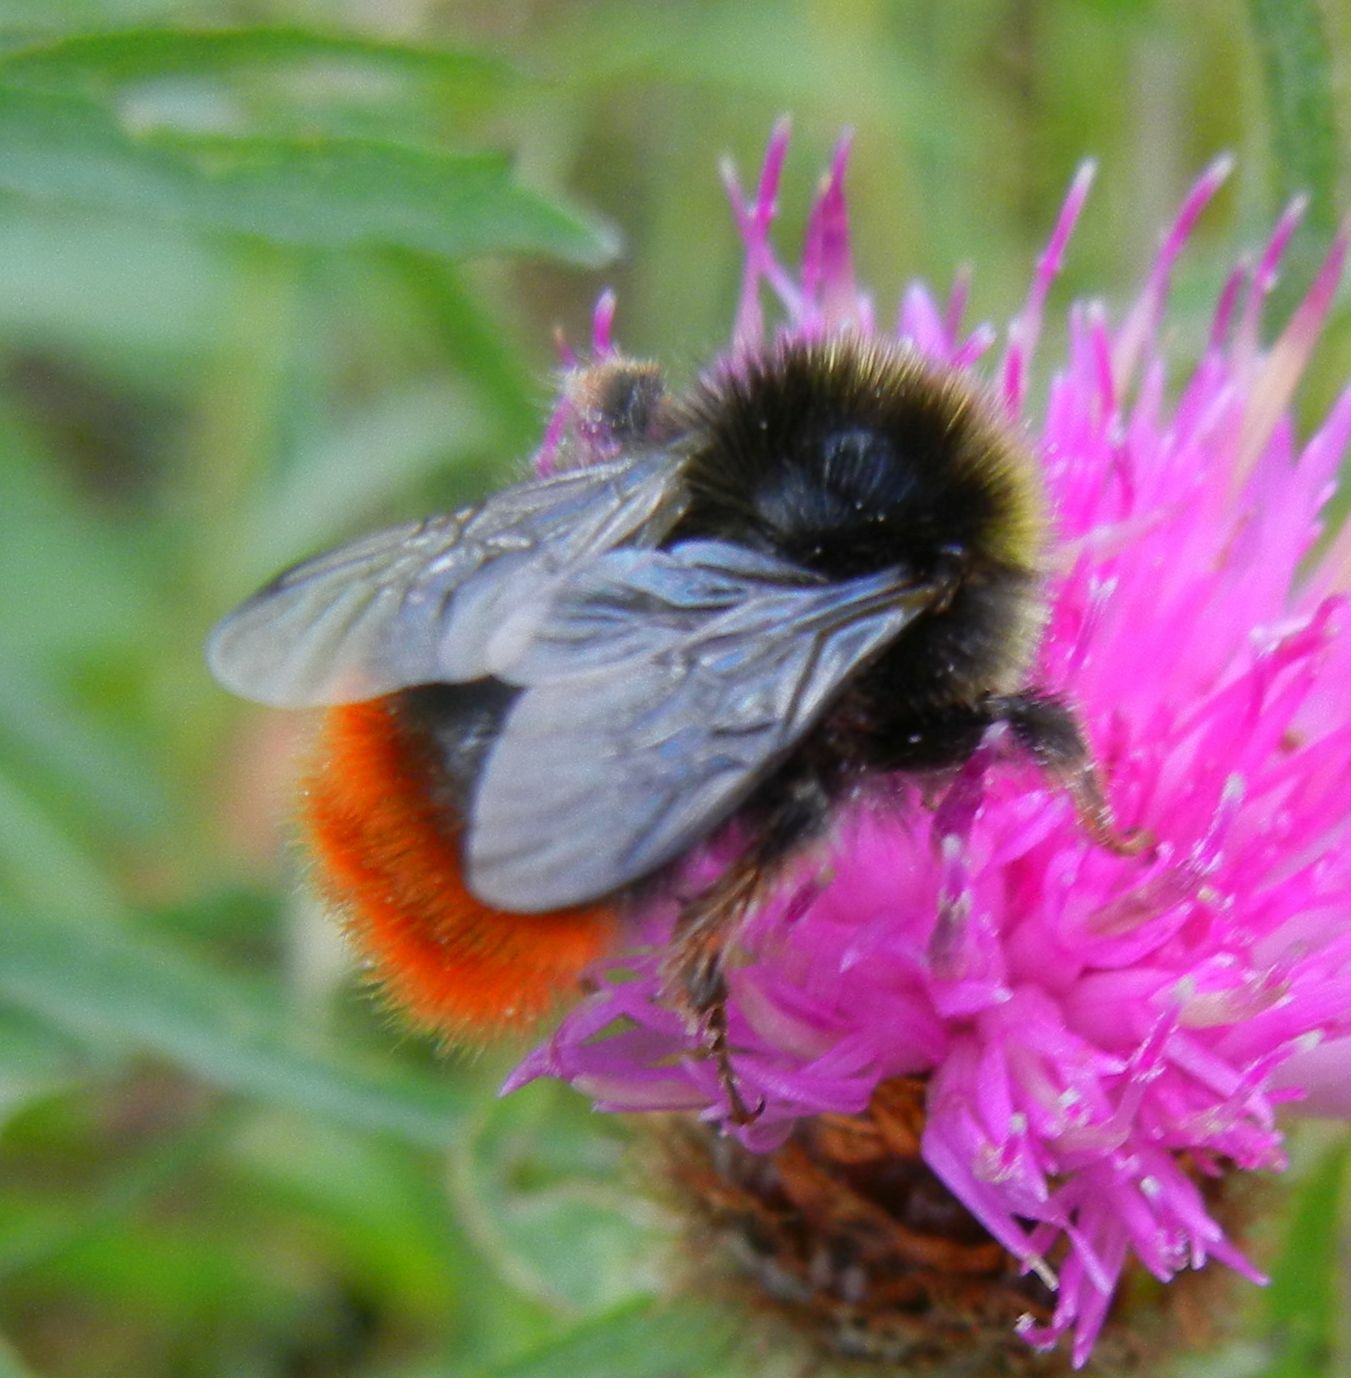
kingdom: Animalia
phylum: Arthropoda
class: Insecta
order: Hymenoptera
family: Apidae
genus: Bombus
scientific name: Bombus lapidarius
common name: Large red-tailed humble-bee
